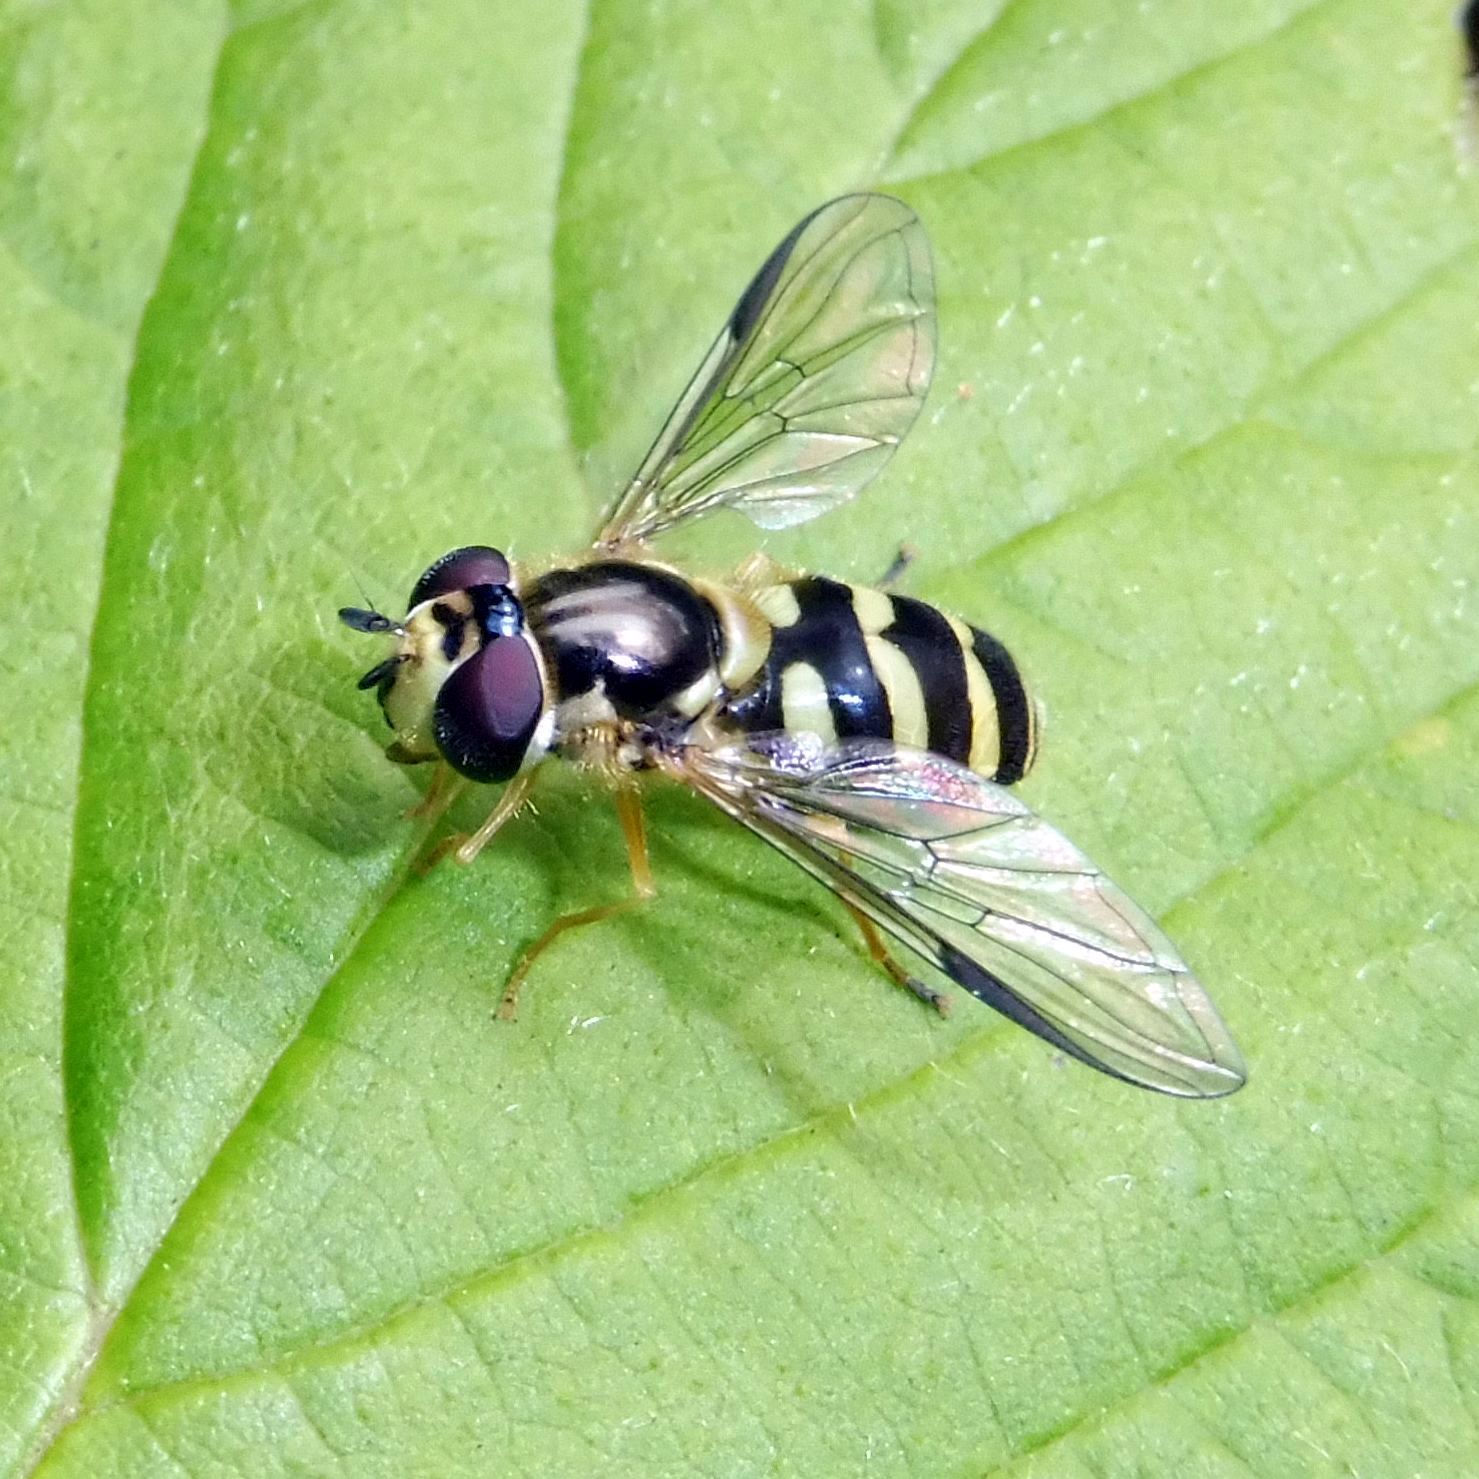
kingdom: Animalia
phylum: Arthropoda
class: Insecta
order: Diptera
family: Syrphidae
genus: Dasysyrphus
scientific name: Dasysyrphus albostriatus
